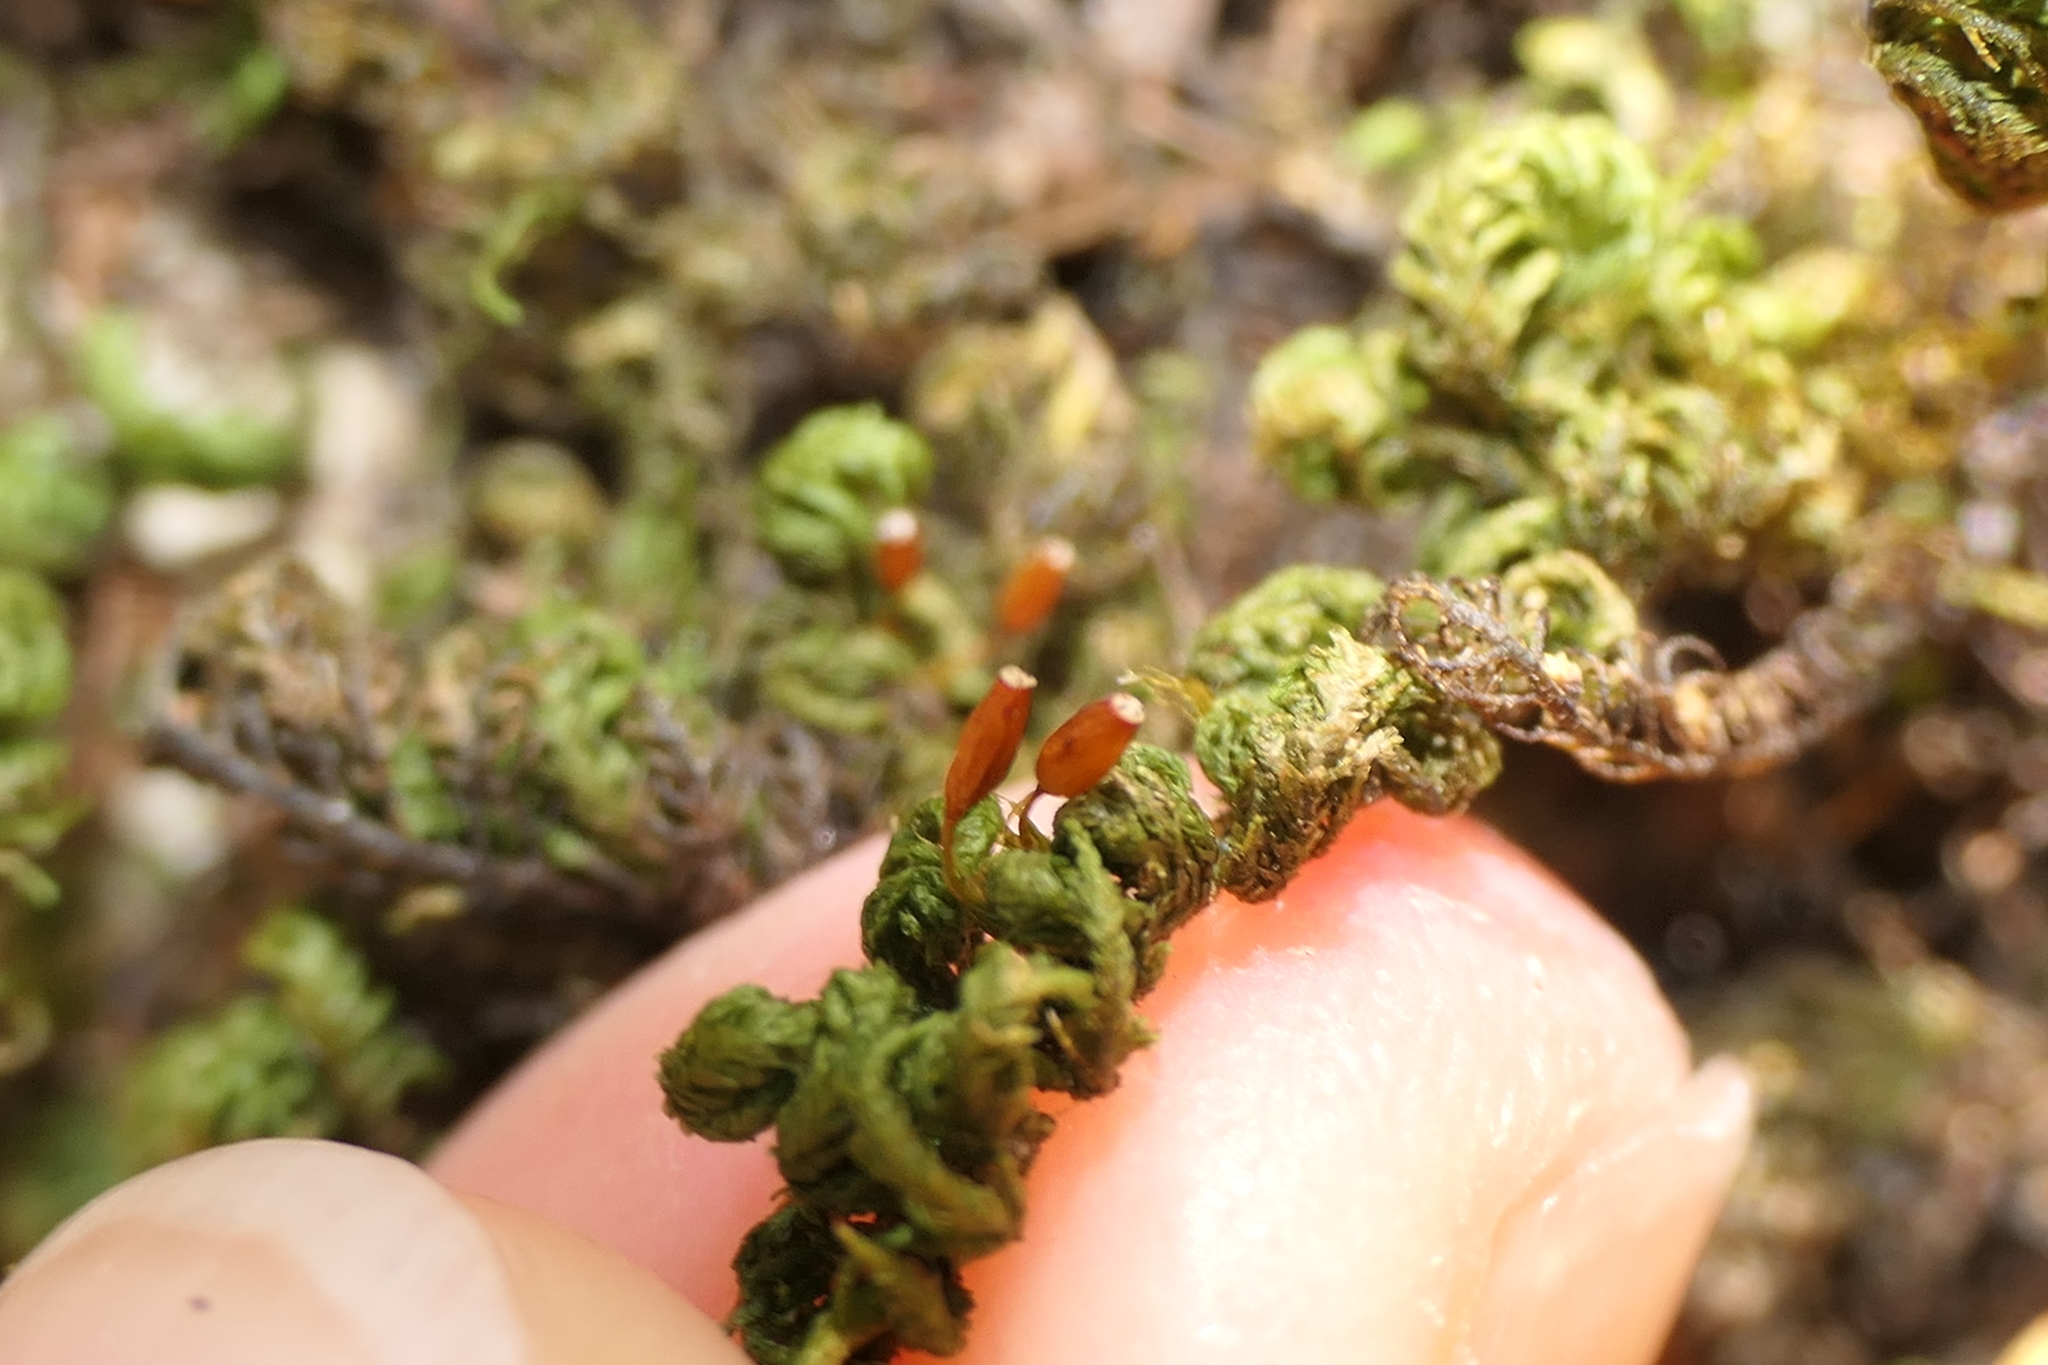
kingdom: Plantae
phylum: Bryophyta
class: Bryopsida
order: Hypnales
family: Neckeraceae
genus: Leptodon
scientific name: Leptodon smithii
